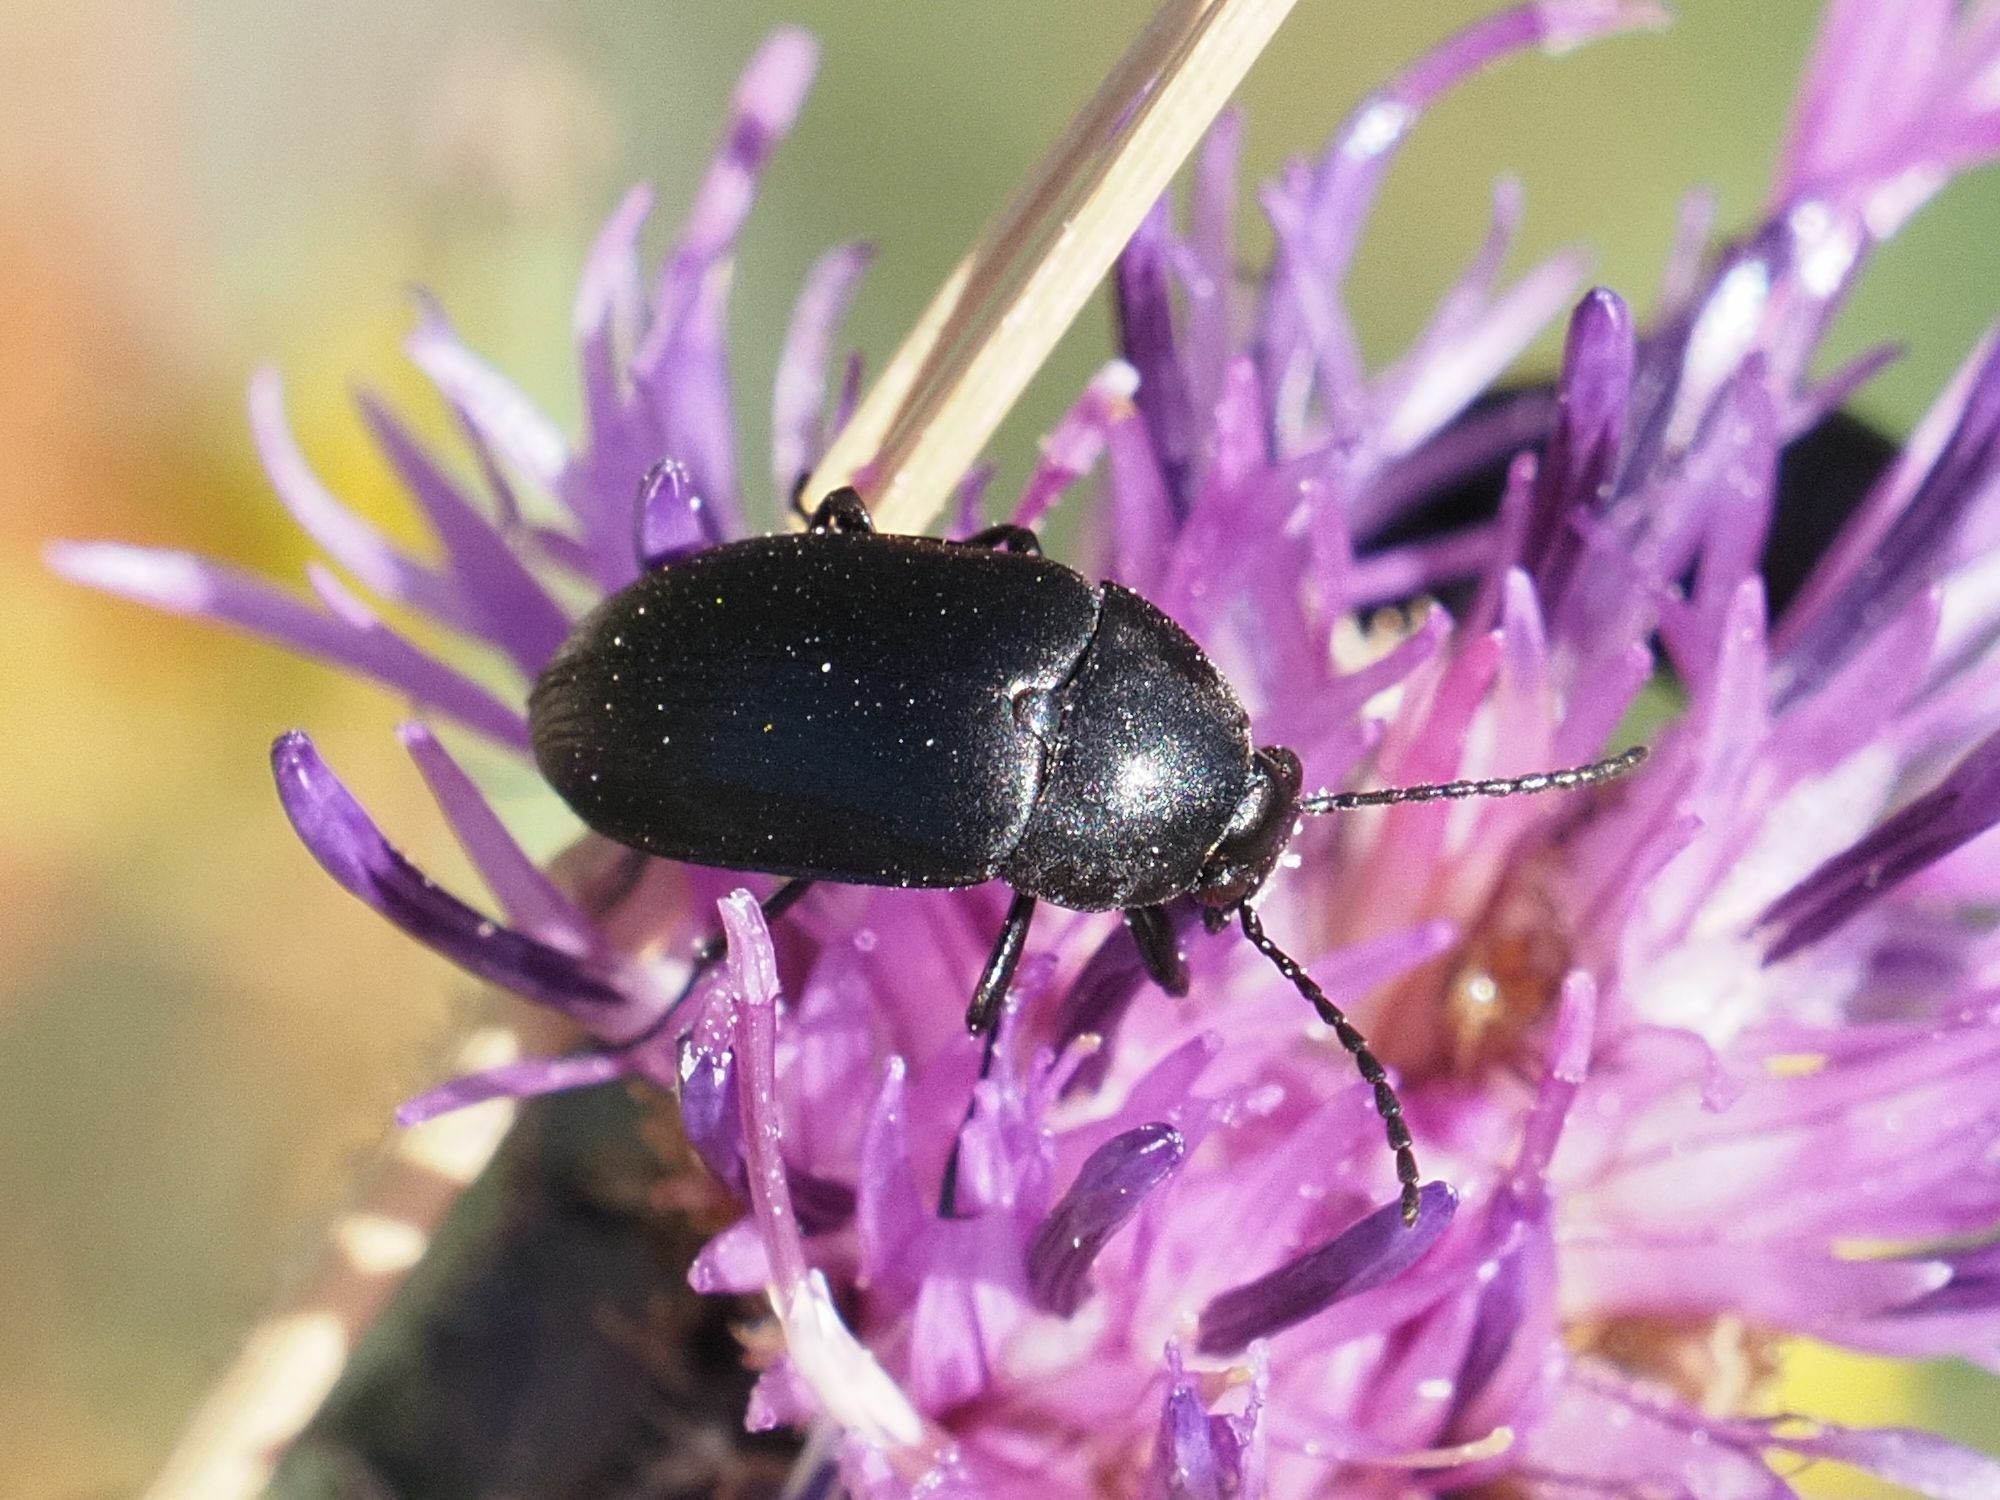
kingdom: Animalia
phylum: Arthropoda
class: Insecta
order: Coleoptera
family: Tenebrionidae
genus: Podonta
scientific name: Podonta nigrita
